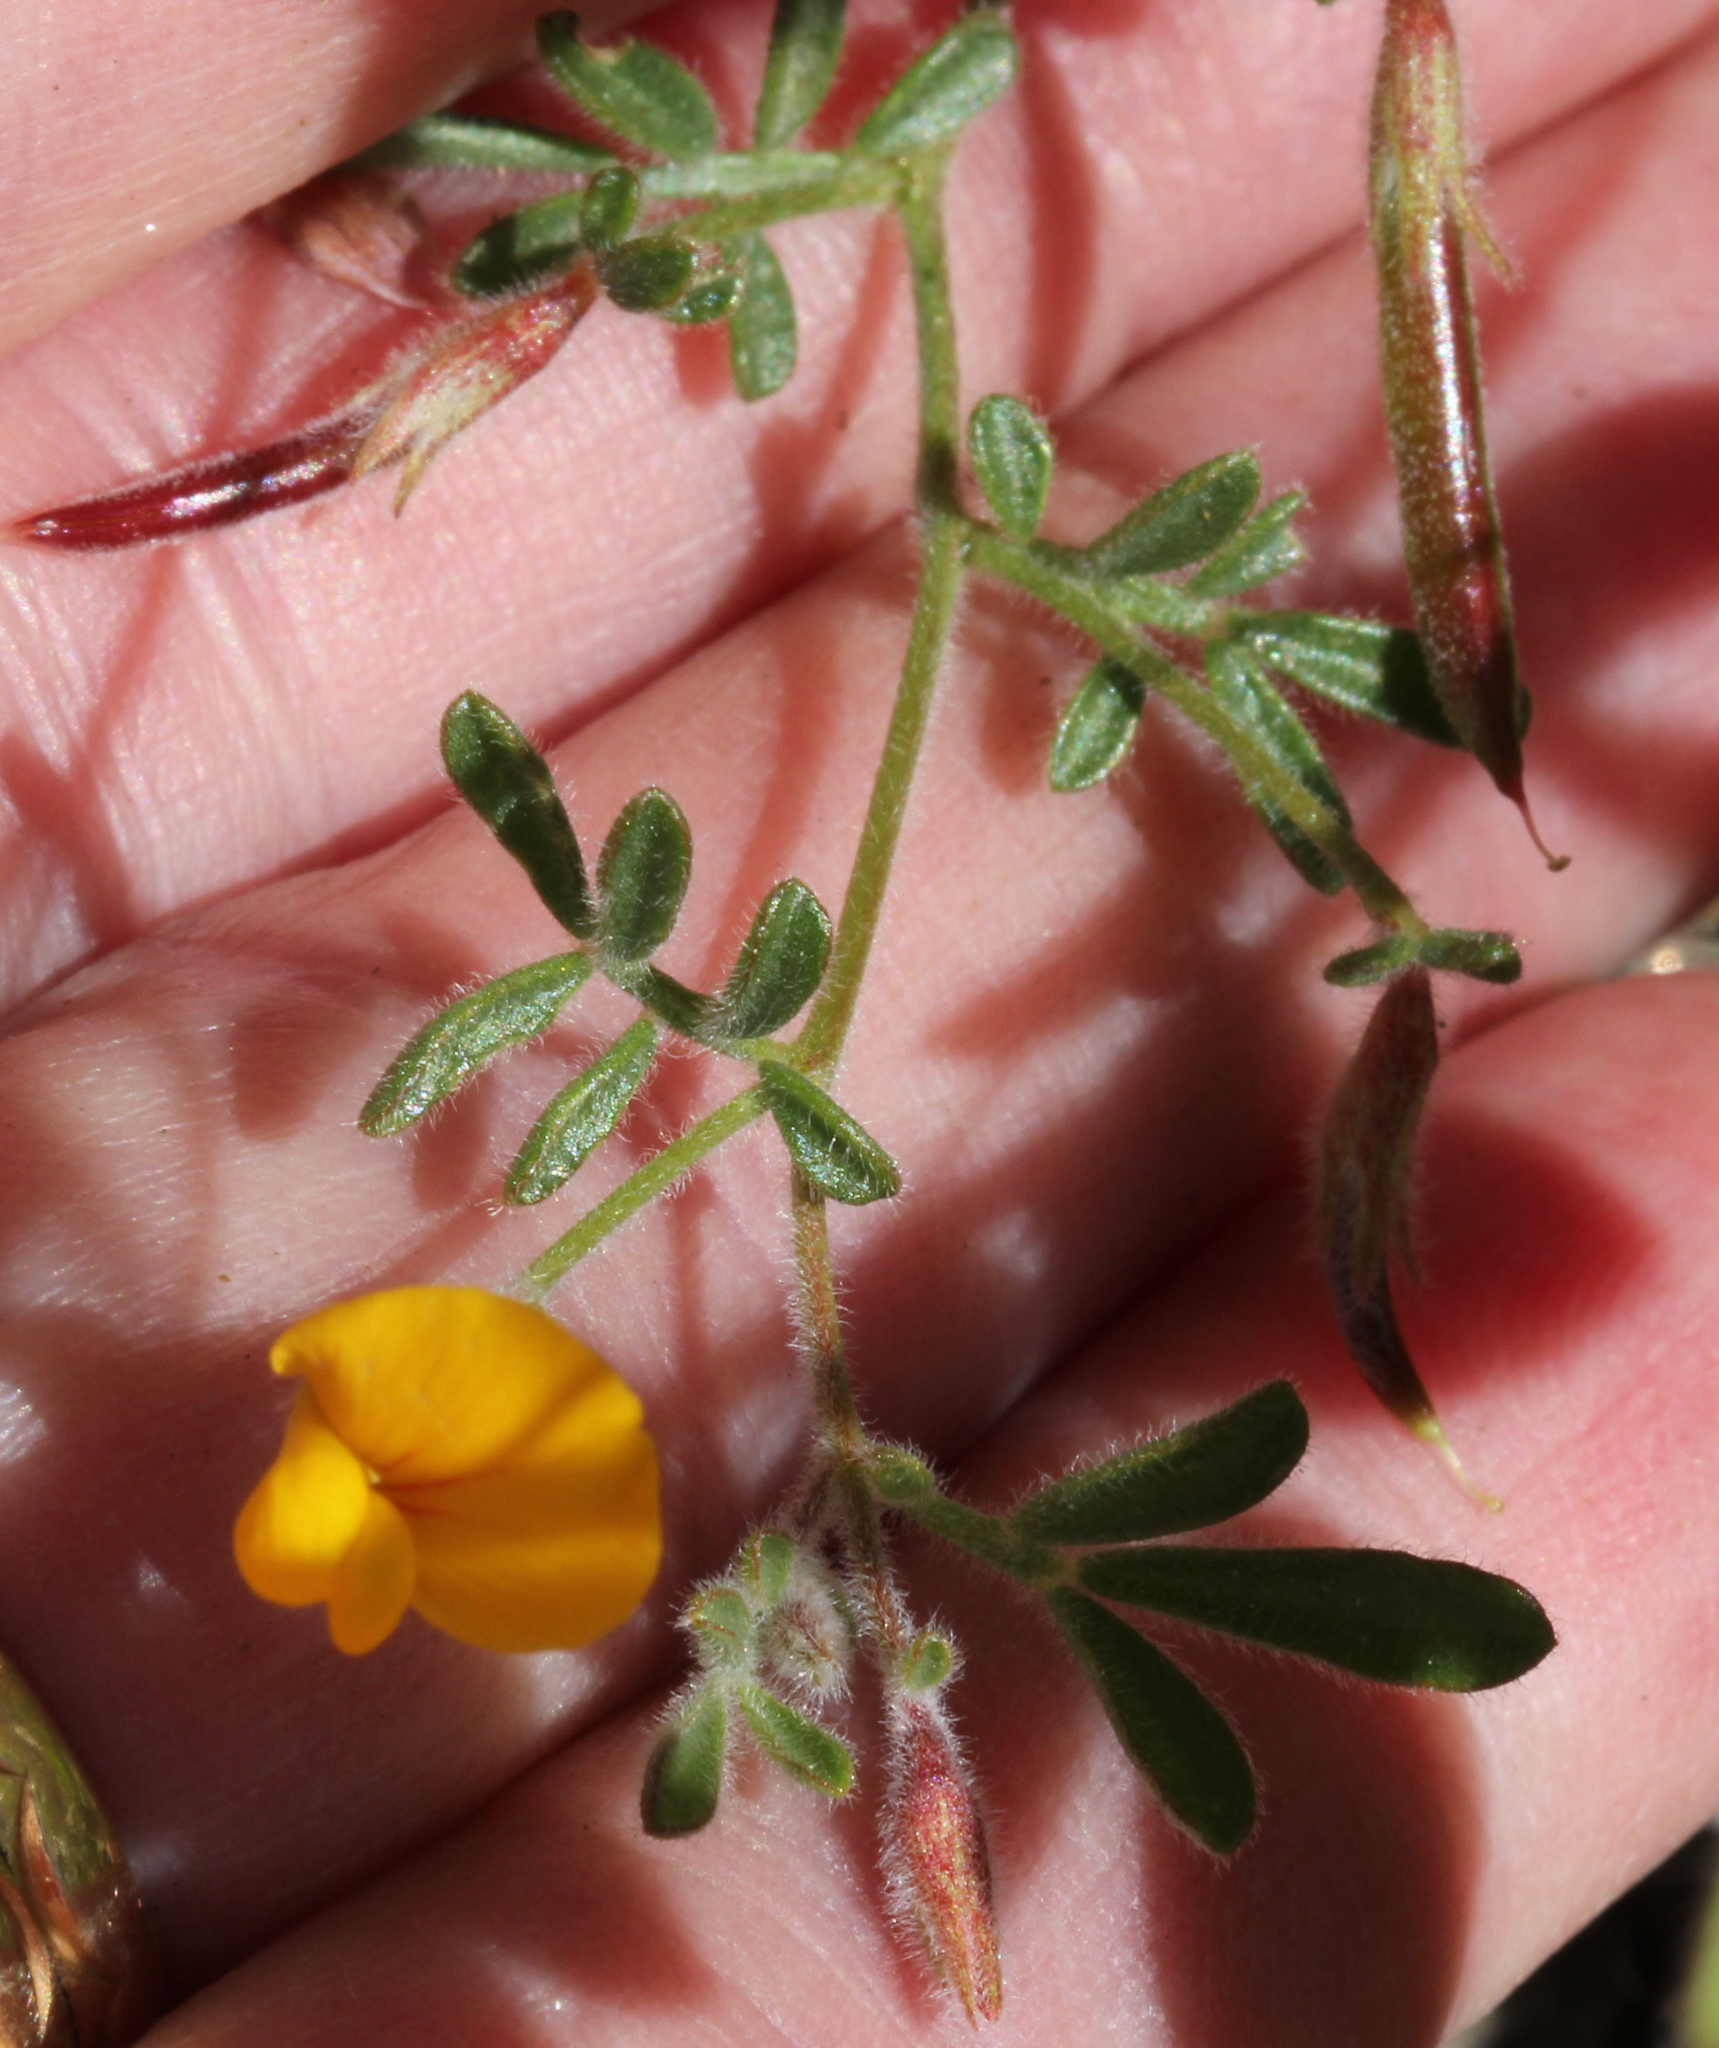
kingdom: Plantae
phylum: Tracheophyta
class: Magnoliopsida
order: Fabales
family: Fabaceae
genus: Acmispon
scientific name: Acmispon strigosus
